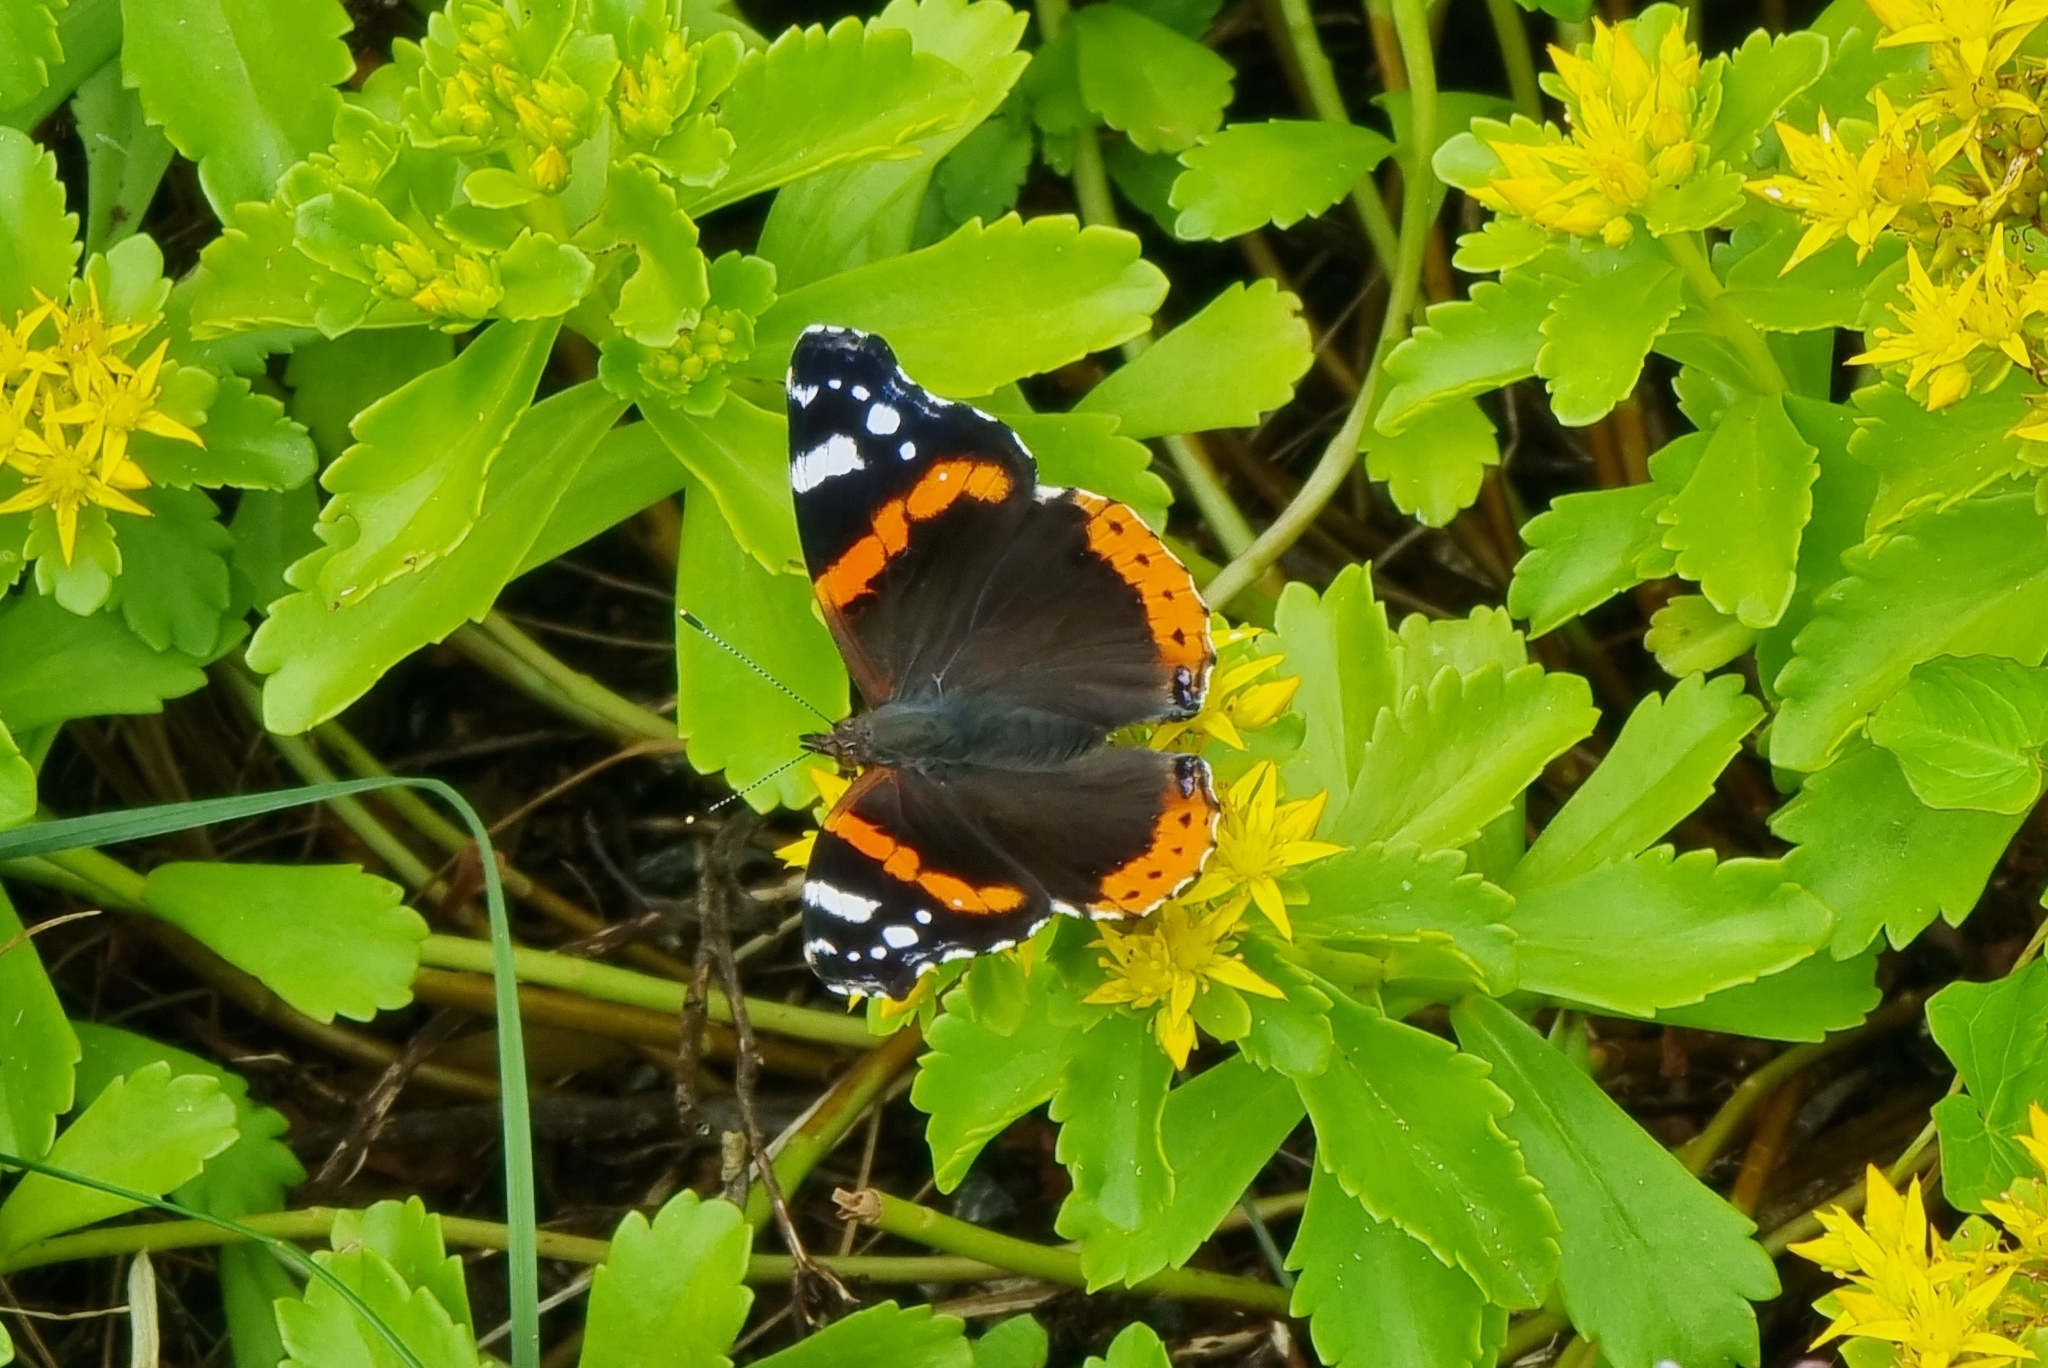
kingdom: Animalia
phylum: Arthropoda
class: Insecta
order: Lepidoptera
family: Nymphalidae
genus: Vanessa
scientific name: Vanessa atalanta
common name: Red admiral
